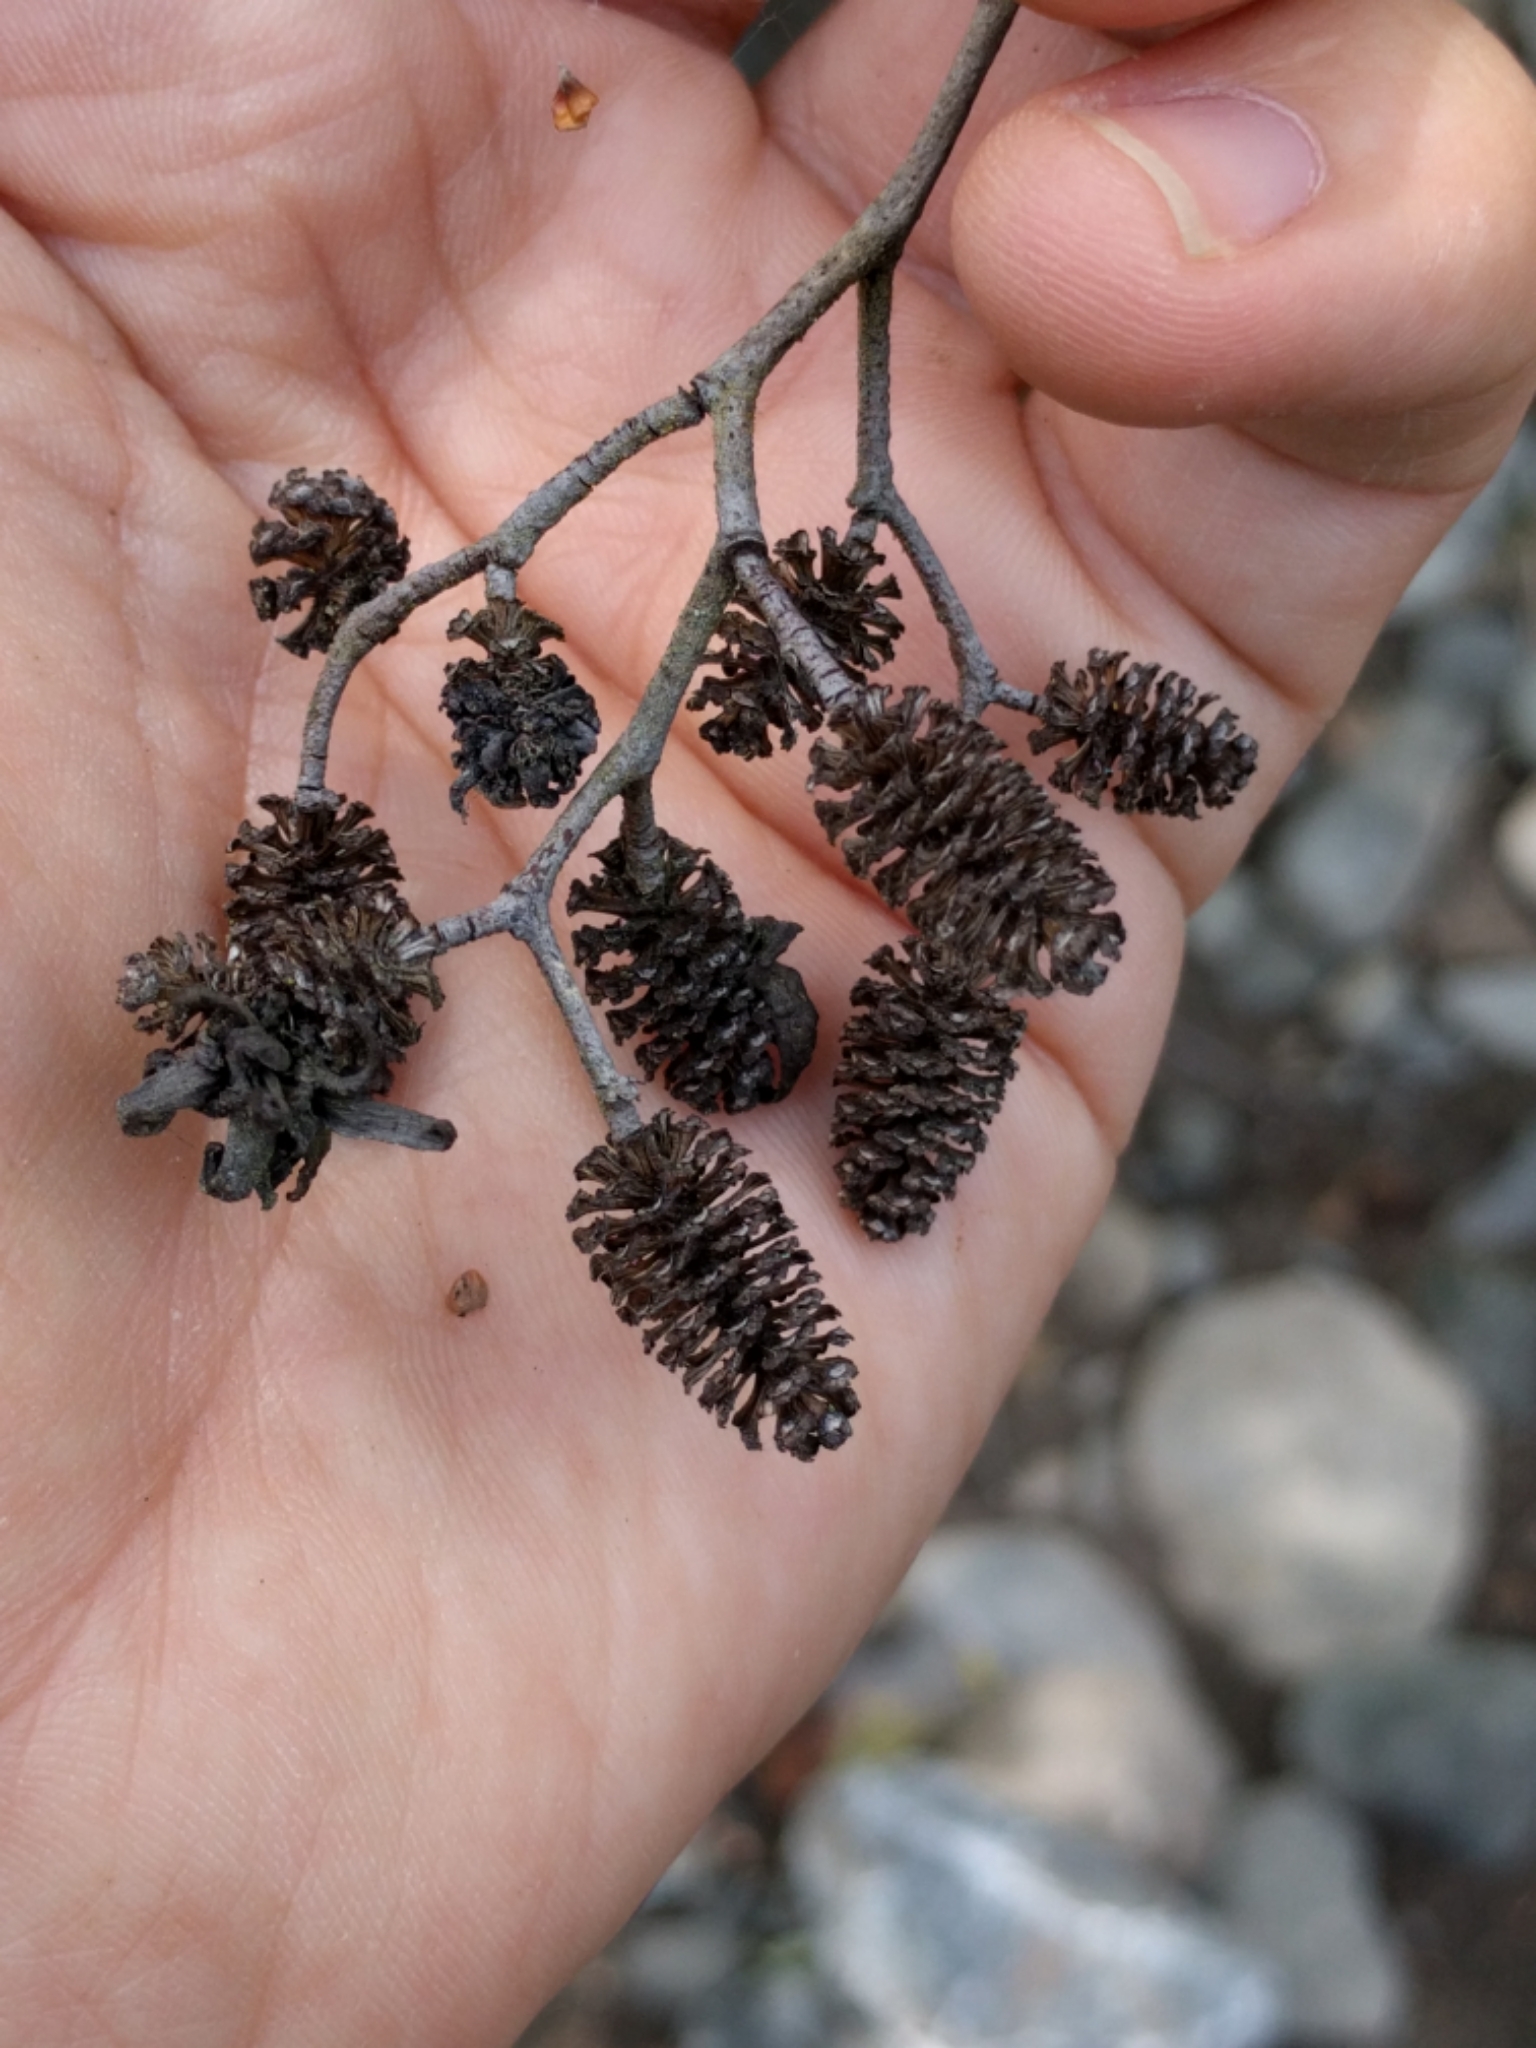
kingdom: Plantae
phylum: Tracheophyta
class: Magnoliopsida
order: Fagales
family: Betulaceae
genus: Alnus
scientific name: Alnus rhombifolia
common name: California alder
